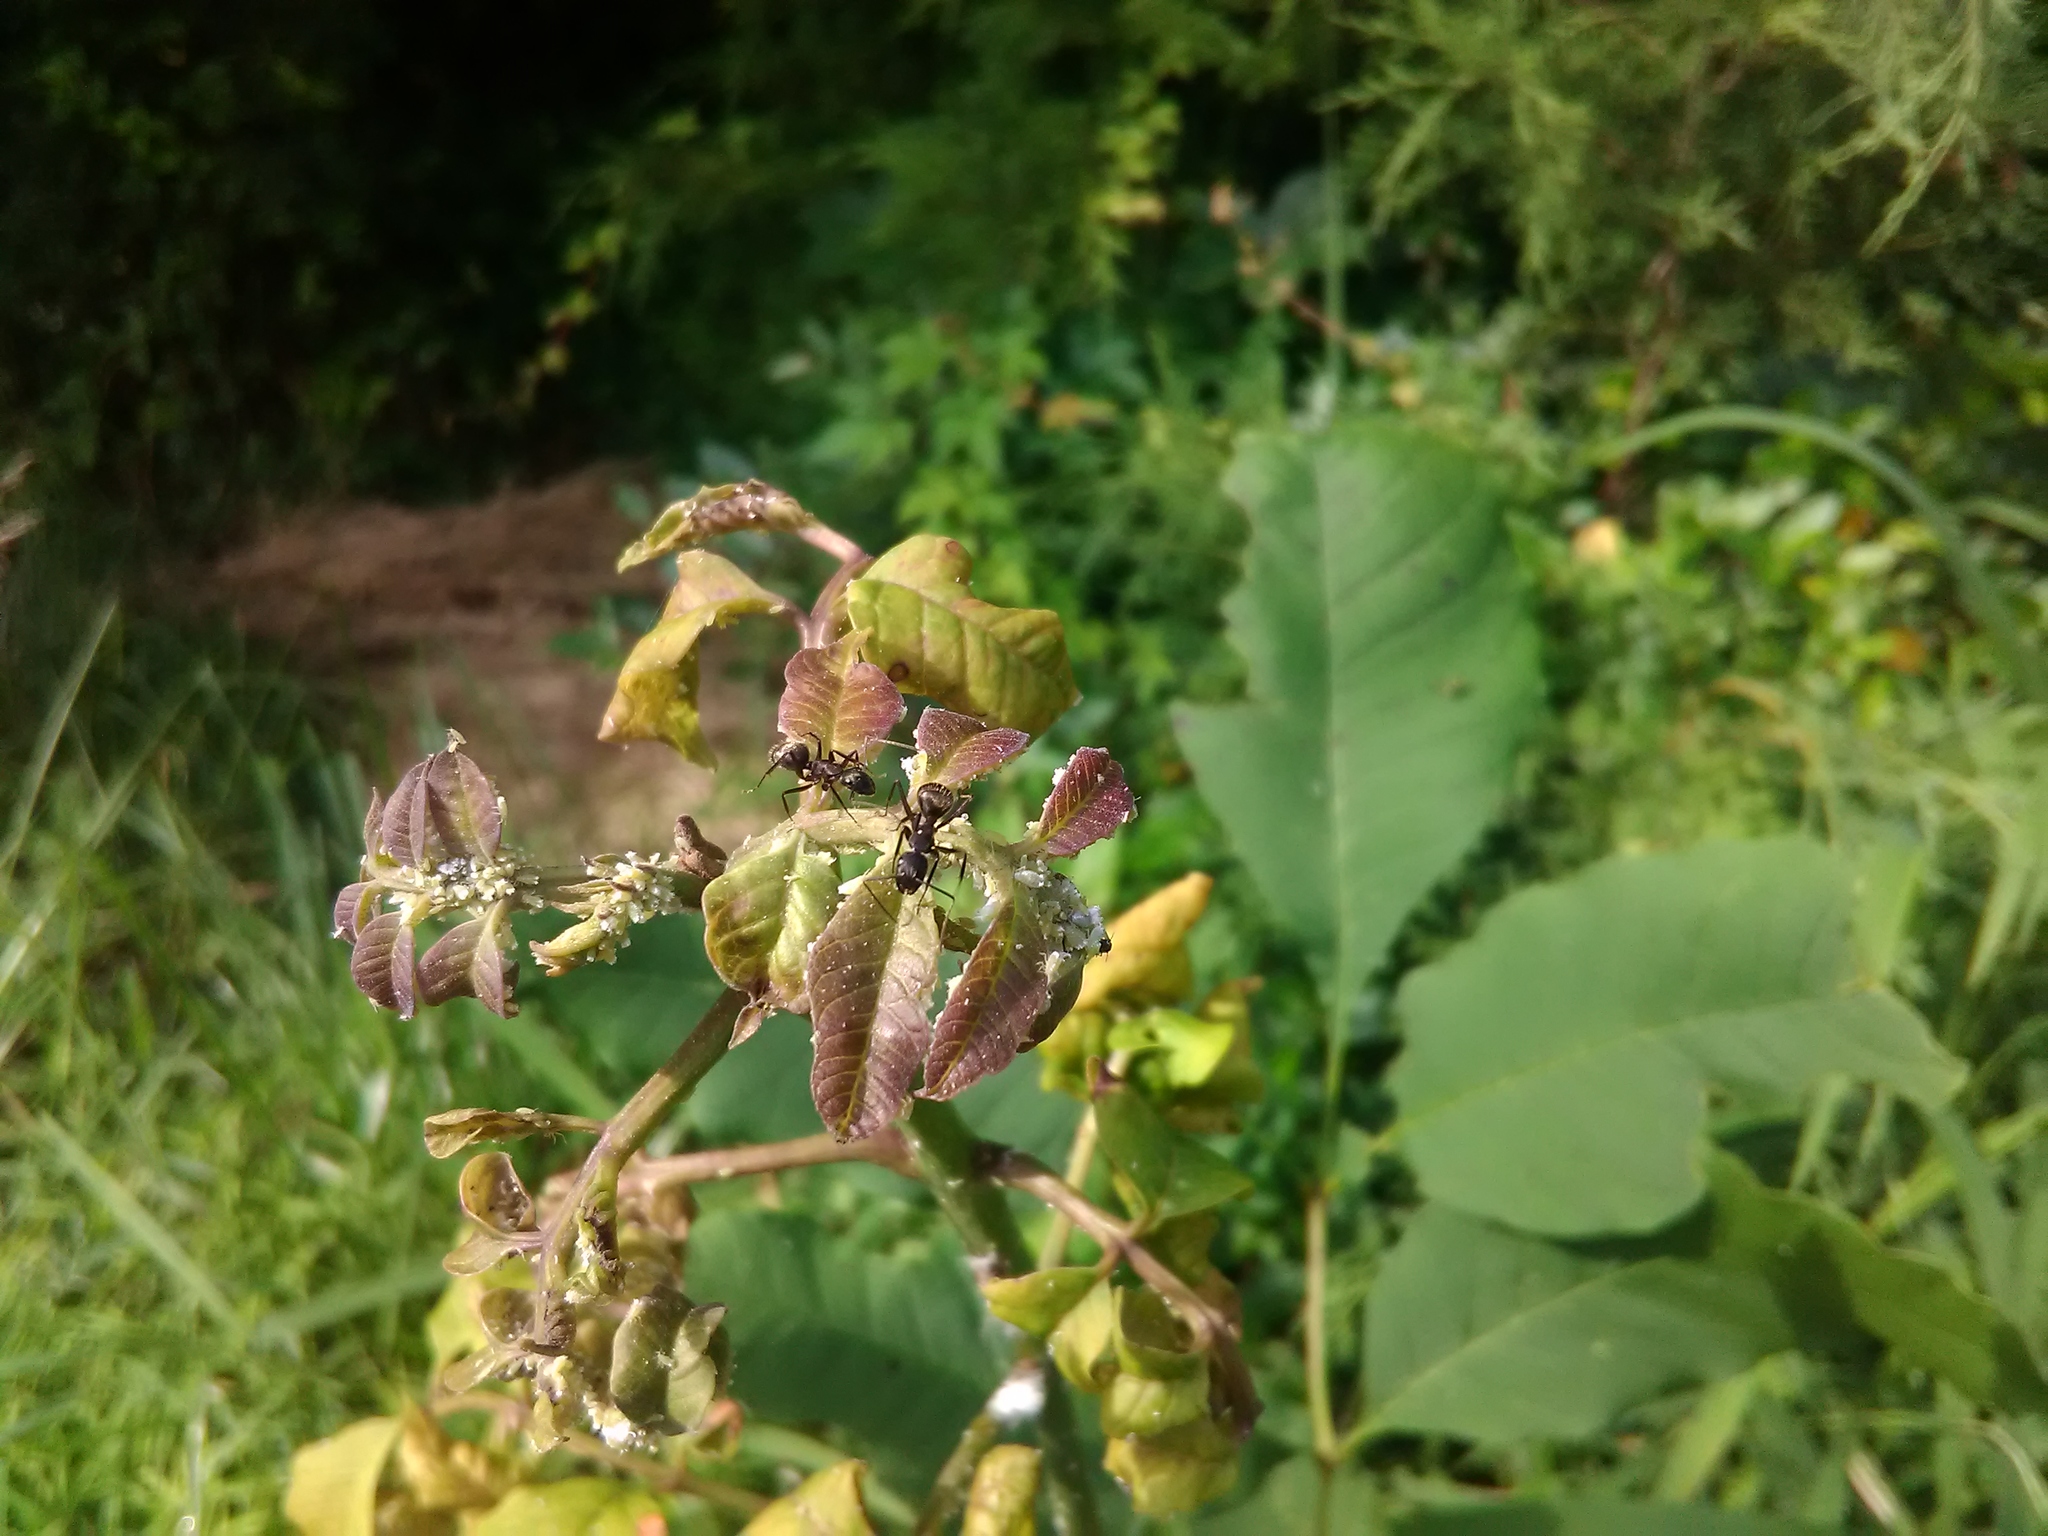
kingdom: Animalia
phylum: Arthropoda
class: Insecta
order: Hymenoptera
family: Formicidae
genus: Camponotus
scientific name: Camponotus chromaiodes
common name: Red carpenter ant
